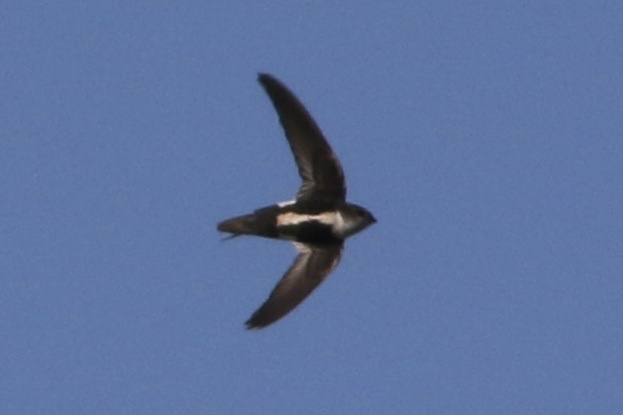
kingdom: Animalia
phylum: Chordata
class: Aves
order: Apodiformes
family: Apodidae
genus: Aeronautes
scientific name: Aeronautes saxatalis
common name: White-throated swift
